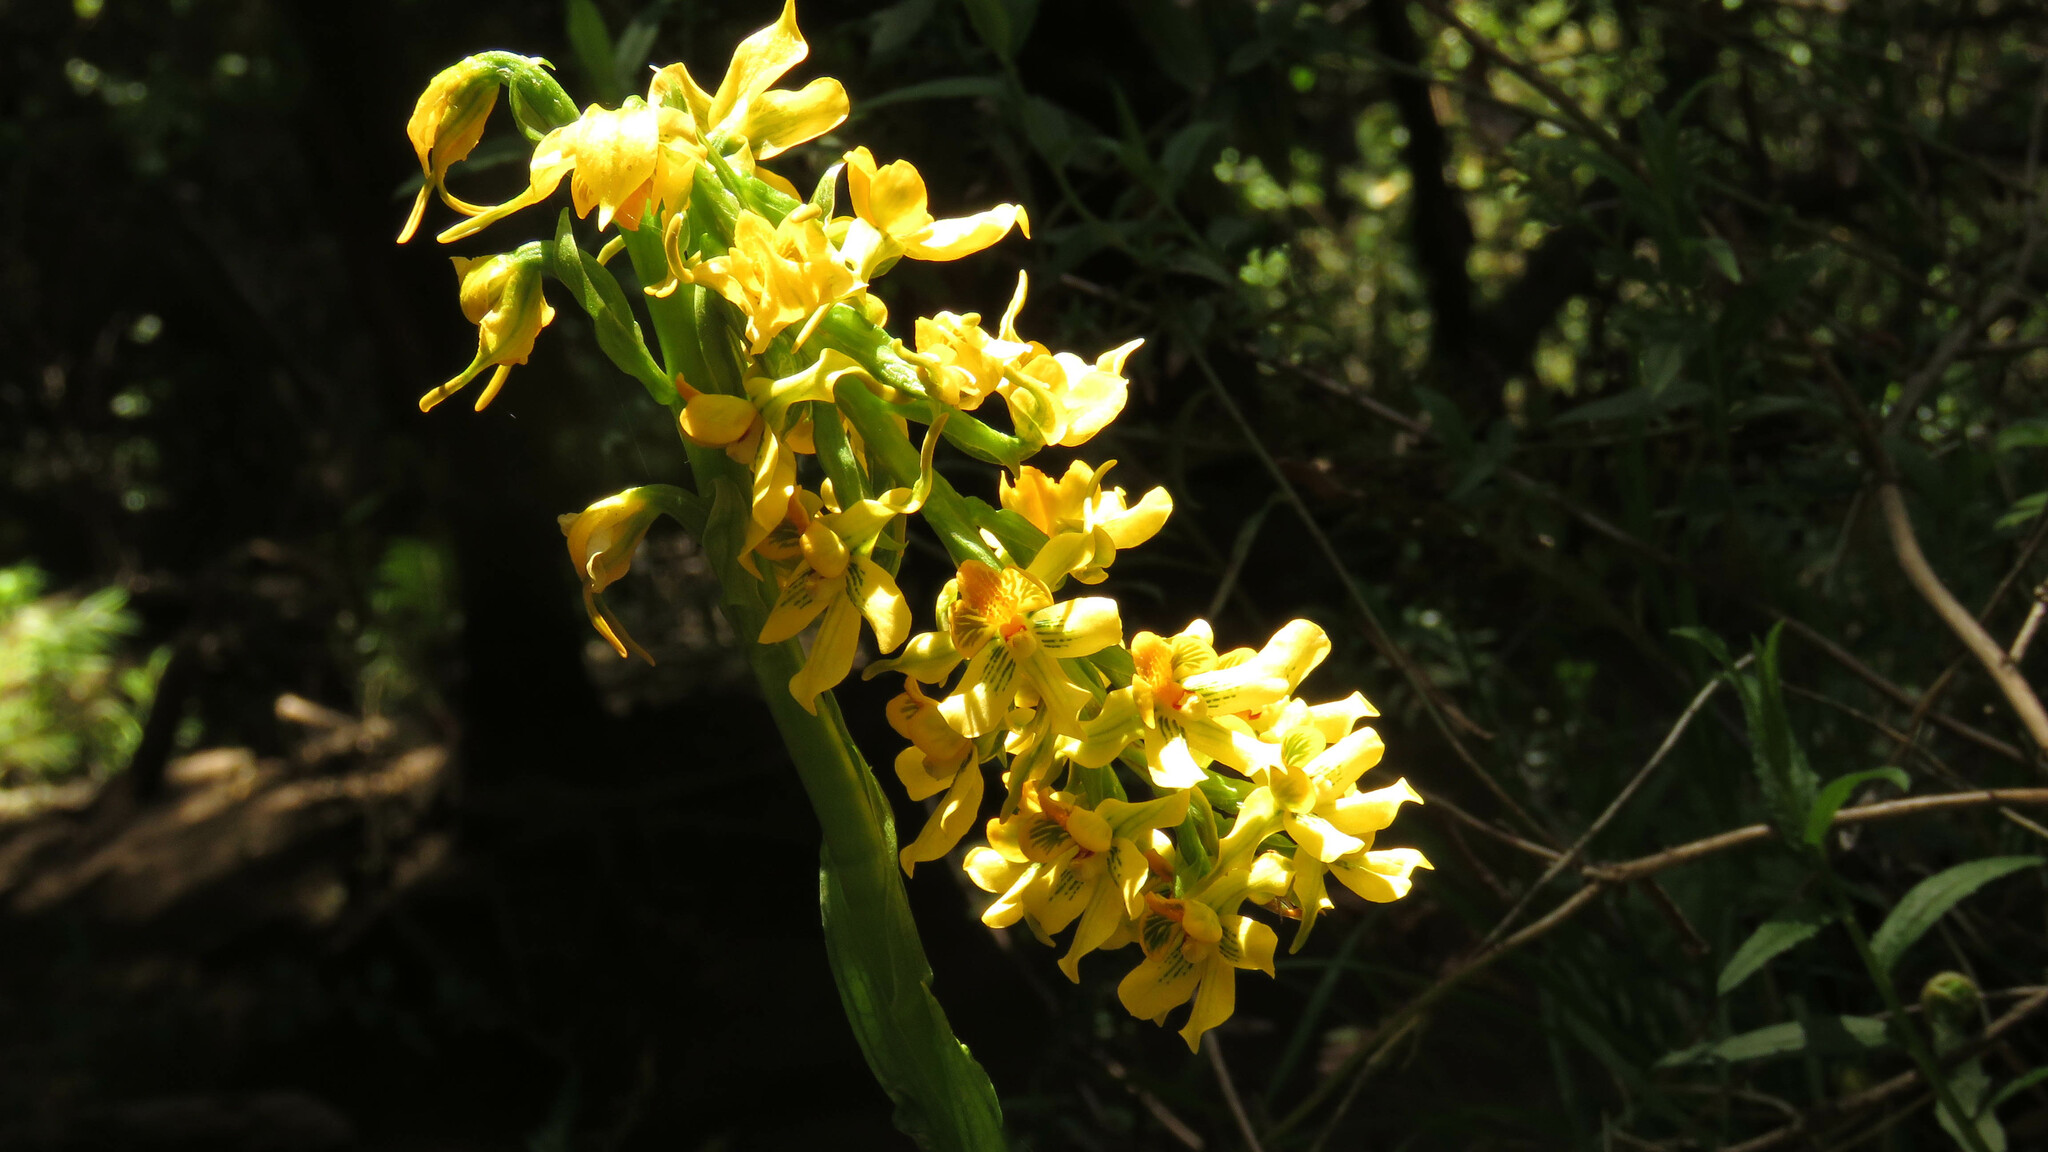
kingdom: Plantae
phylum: Tracheophyta
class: Liliopsida
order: Asparagales
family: Orchidaceae
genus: Gavilea
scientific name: Gavilea odoratissima
